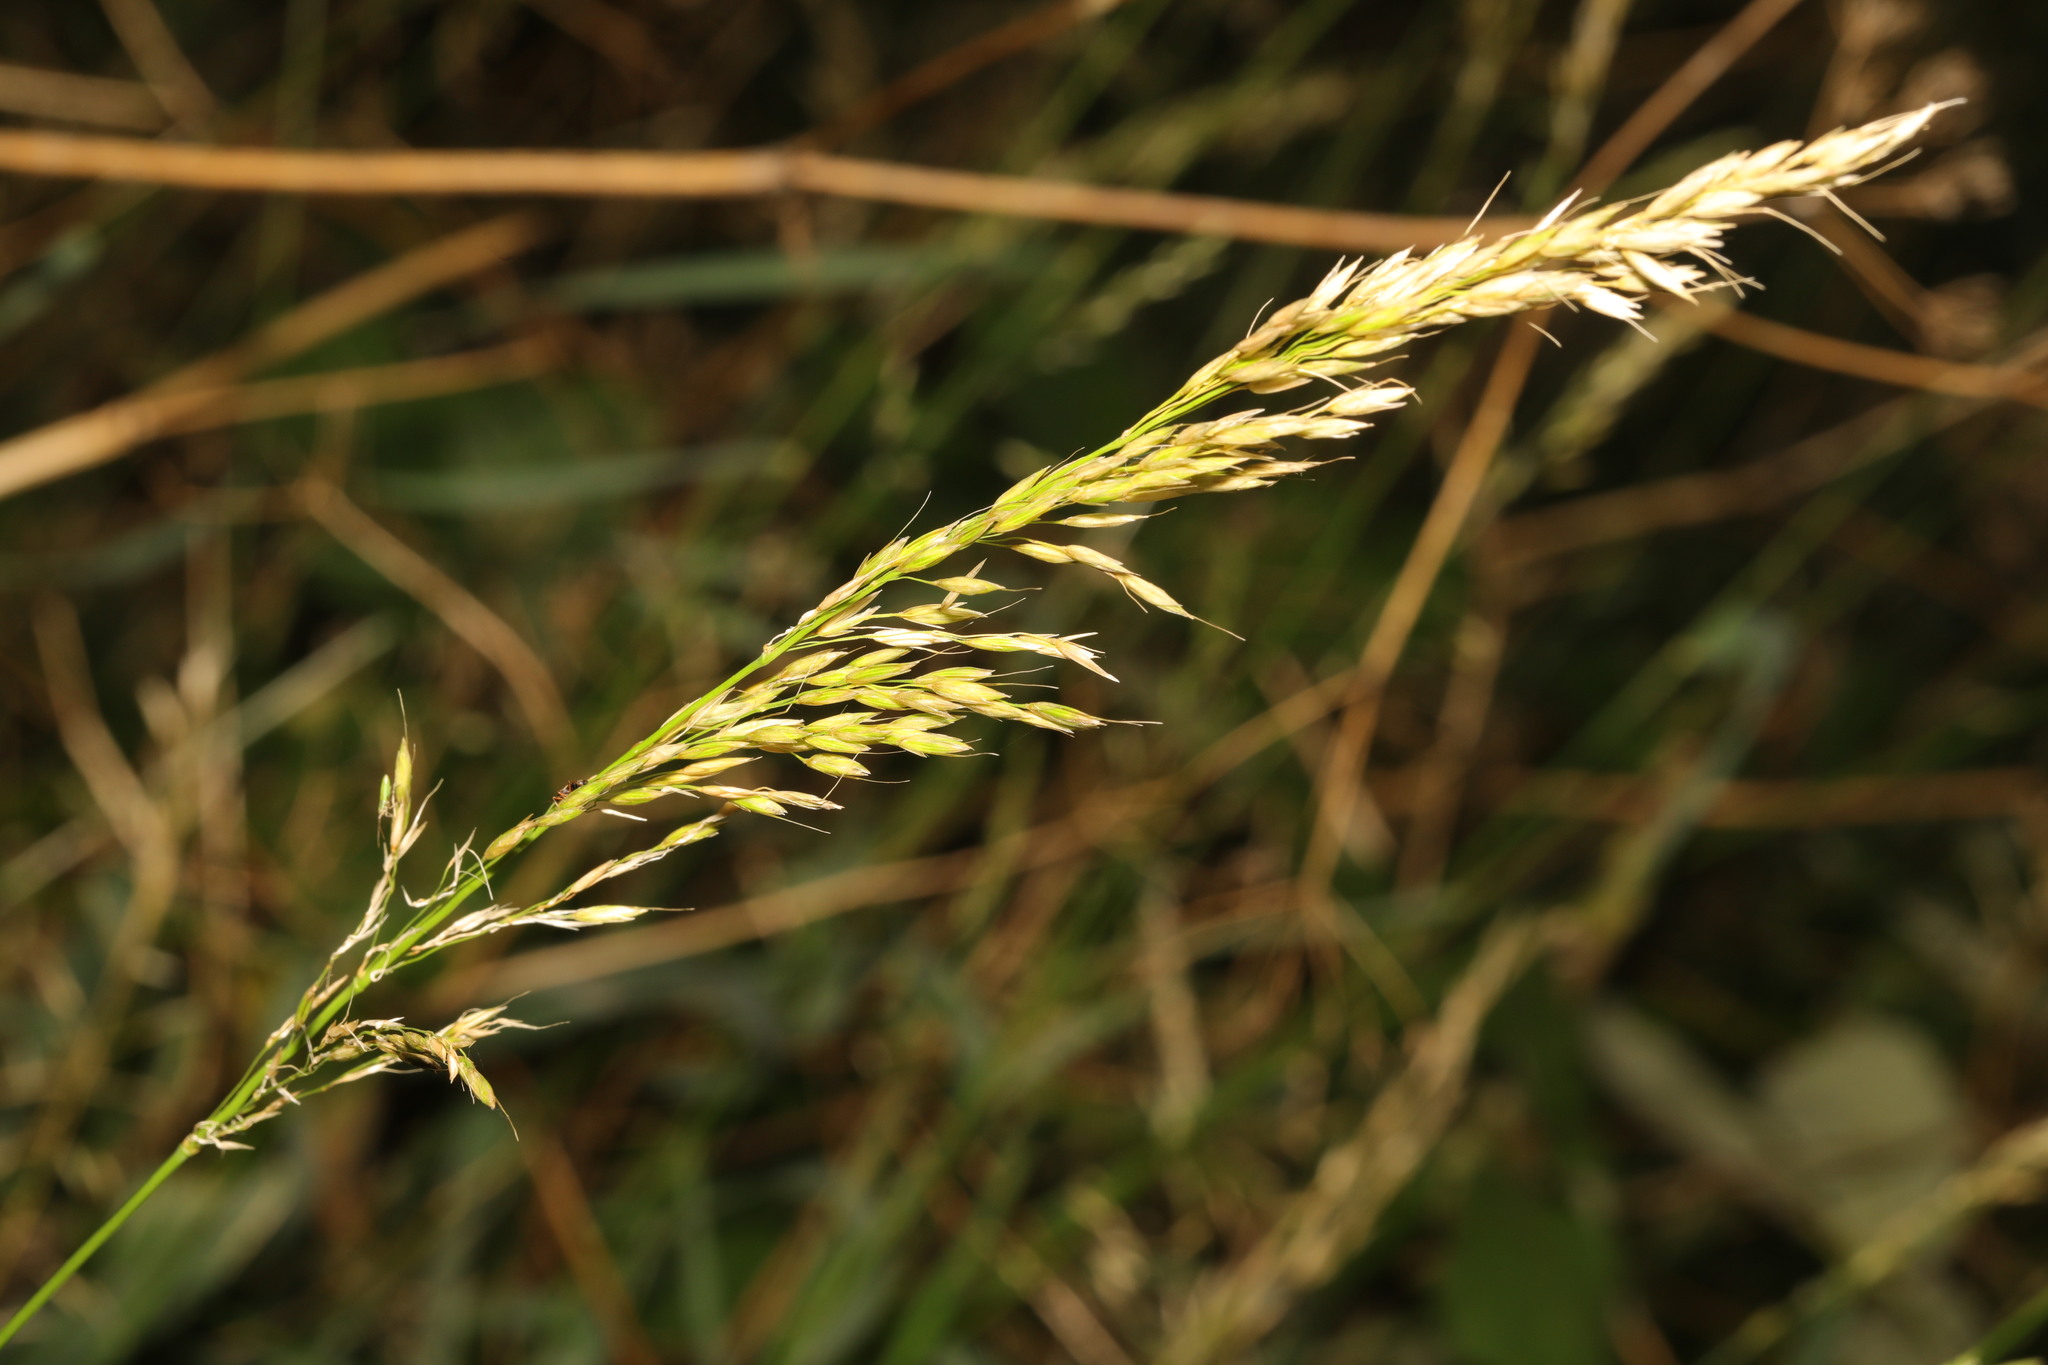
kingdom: Plantae
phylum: Tracheophyta
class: Liliopsida
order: Poales
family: Poaceae
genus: Arrhenatherum
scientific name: Arrhenatherum elatius
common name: Tall oatgrass
